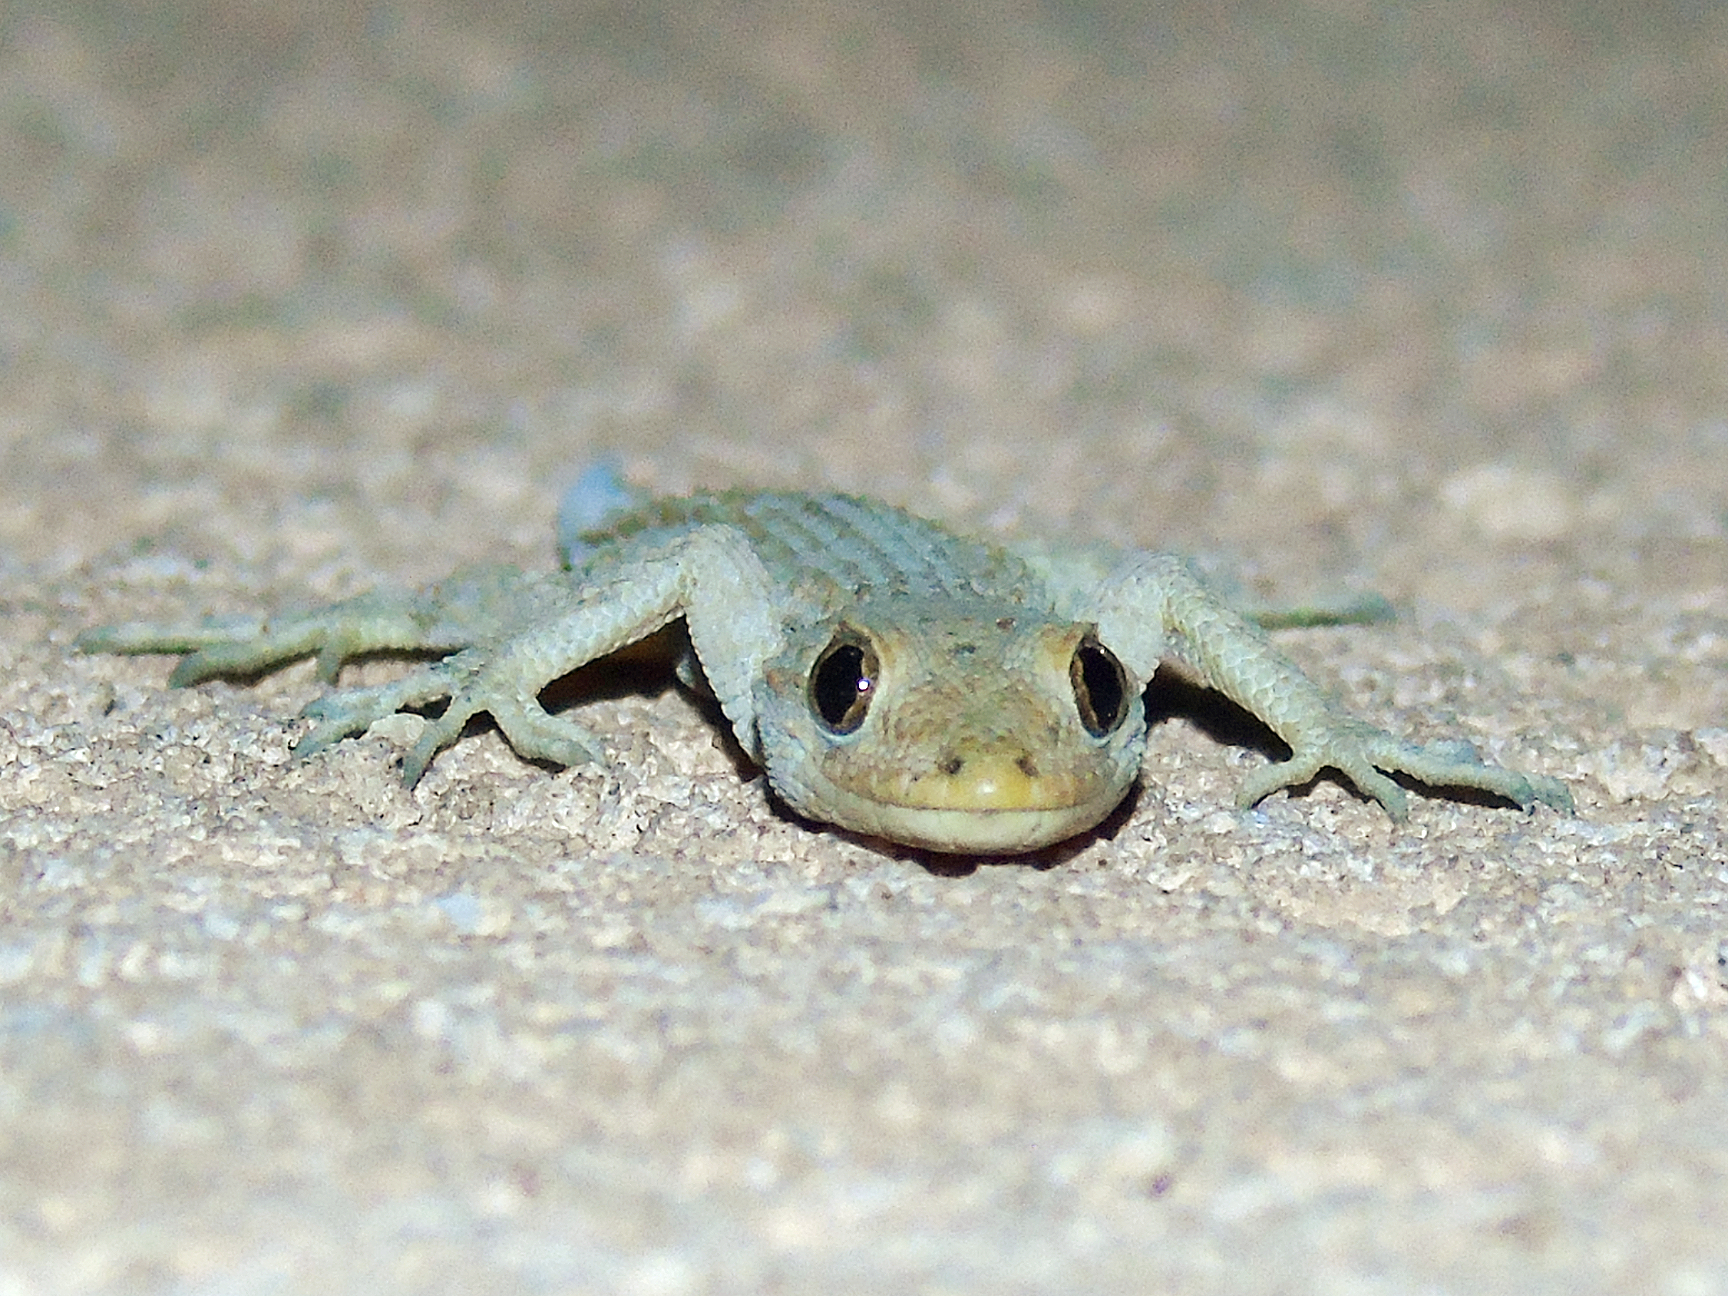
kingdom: Animalia
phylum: Chordata
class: Squamata
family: Gekkonidae
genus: Mediodactylus
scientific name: Mediodactylus kotschyi
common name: Kotschy's gecko
